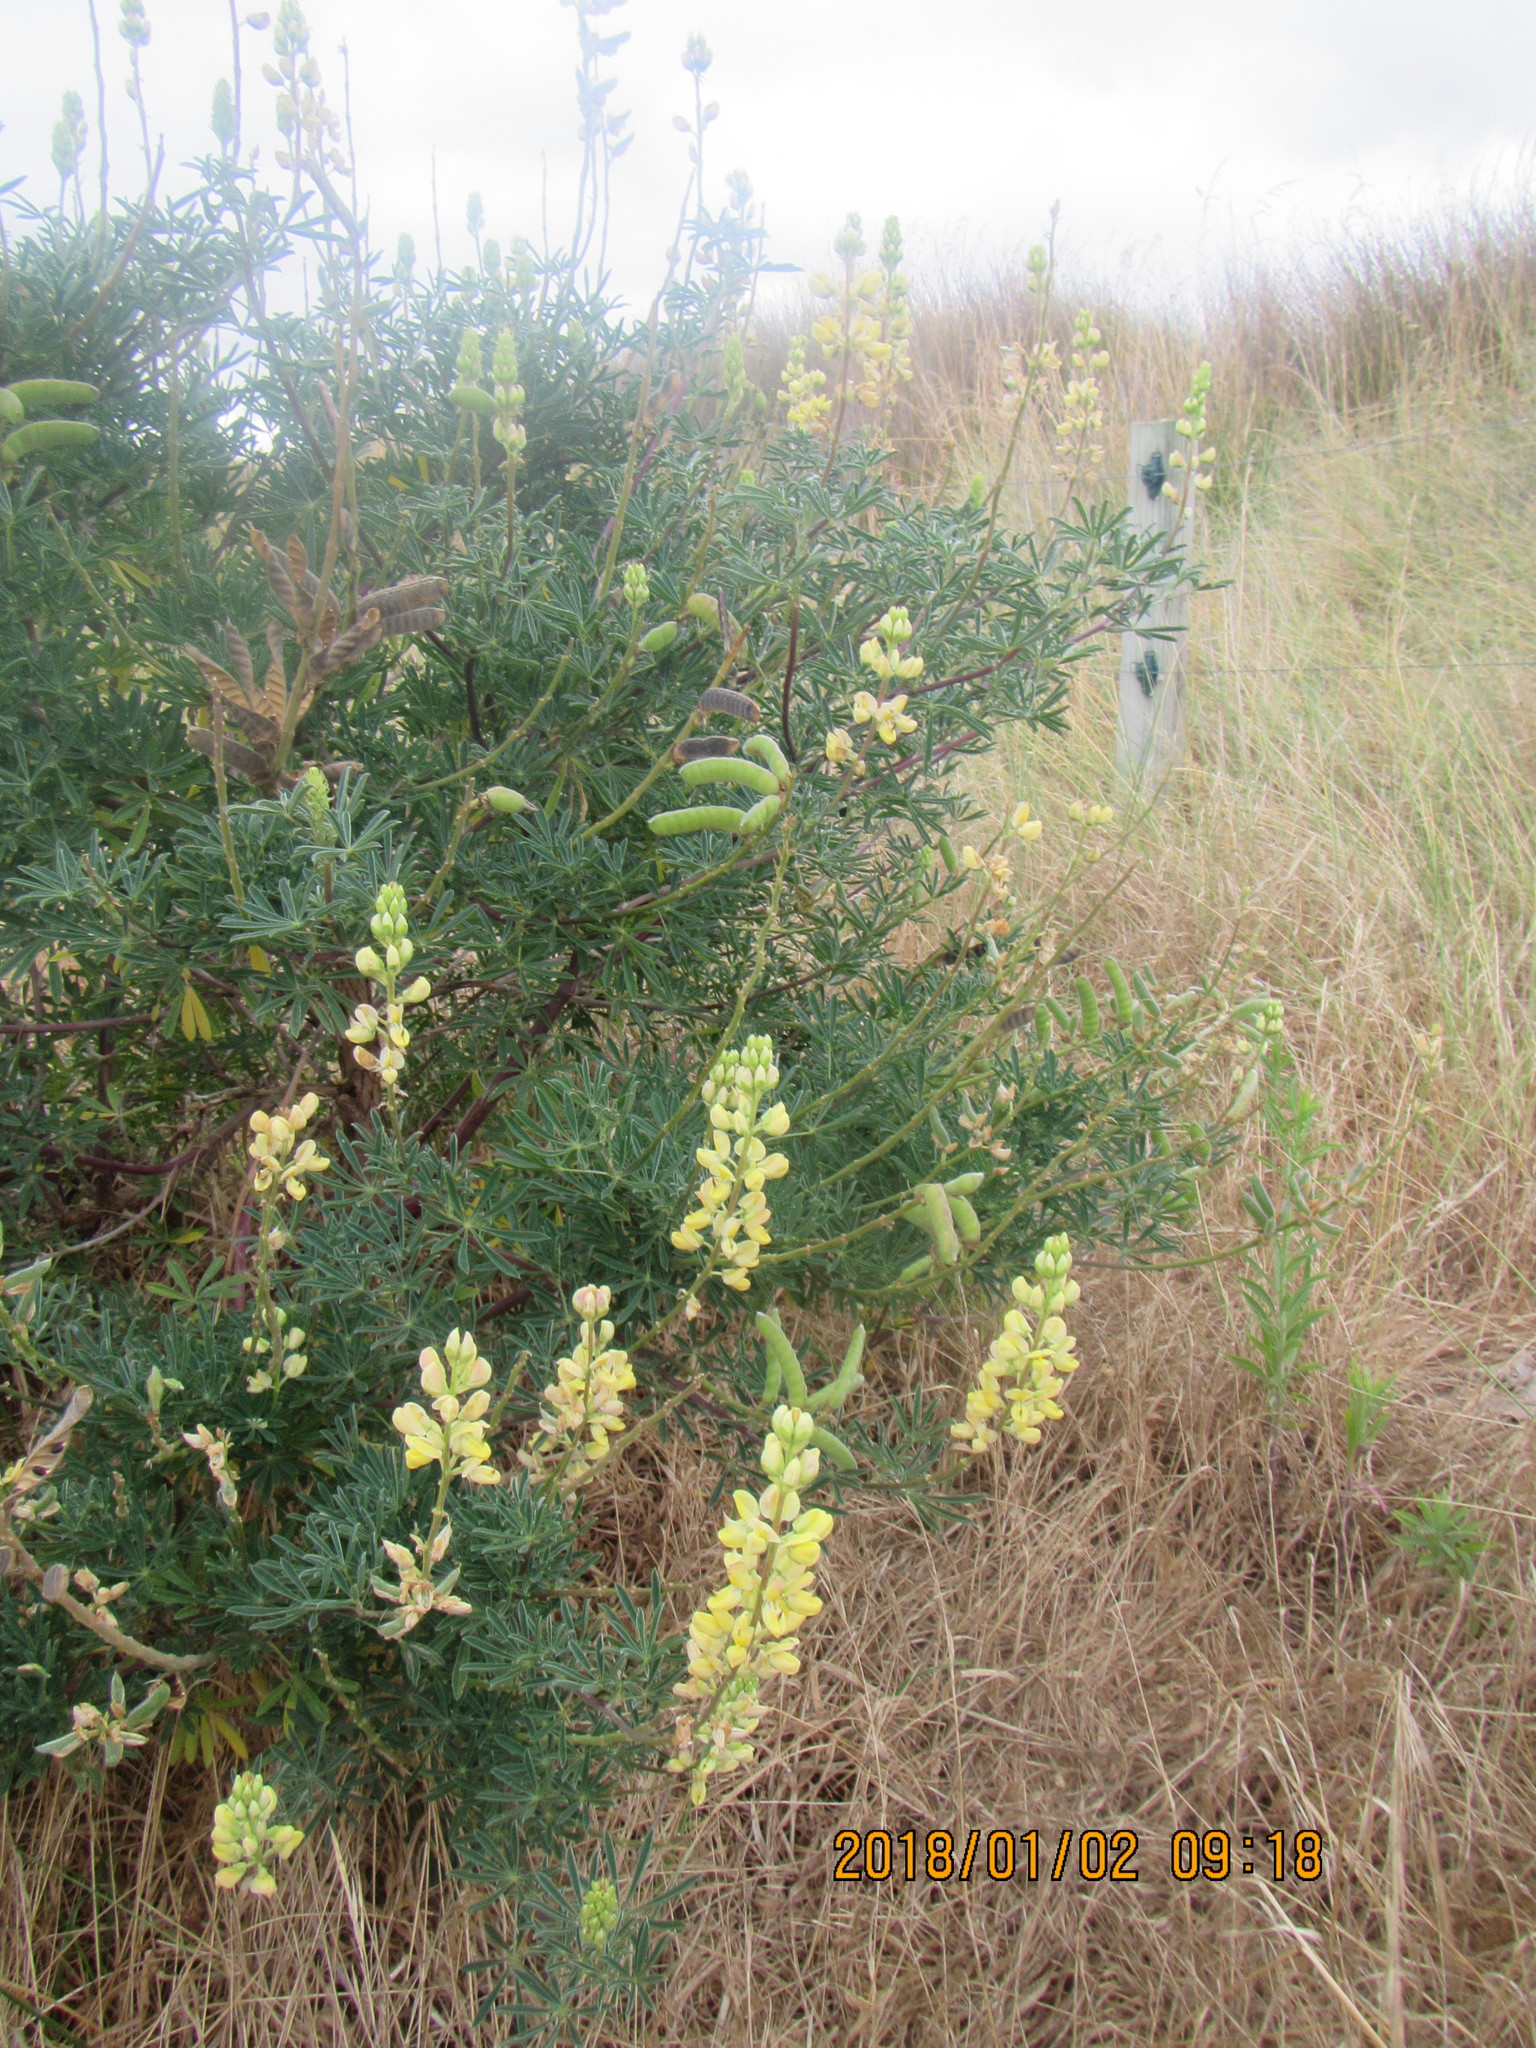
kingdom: Plantae
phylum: Tracheophyta
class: Magnoliopsida
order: Fabales
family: Fabaceae
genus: Lupinus
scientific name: Lupinus arboreus
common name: Yellow bush lupine
